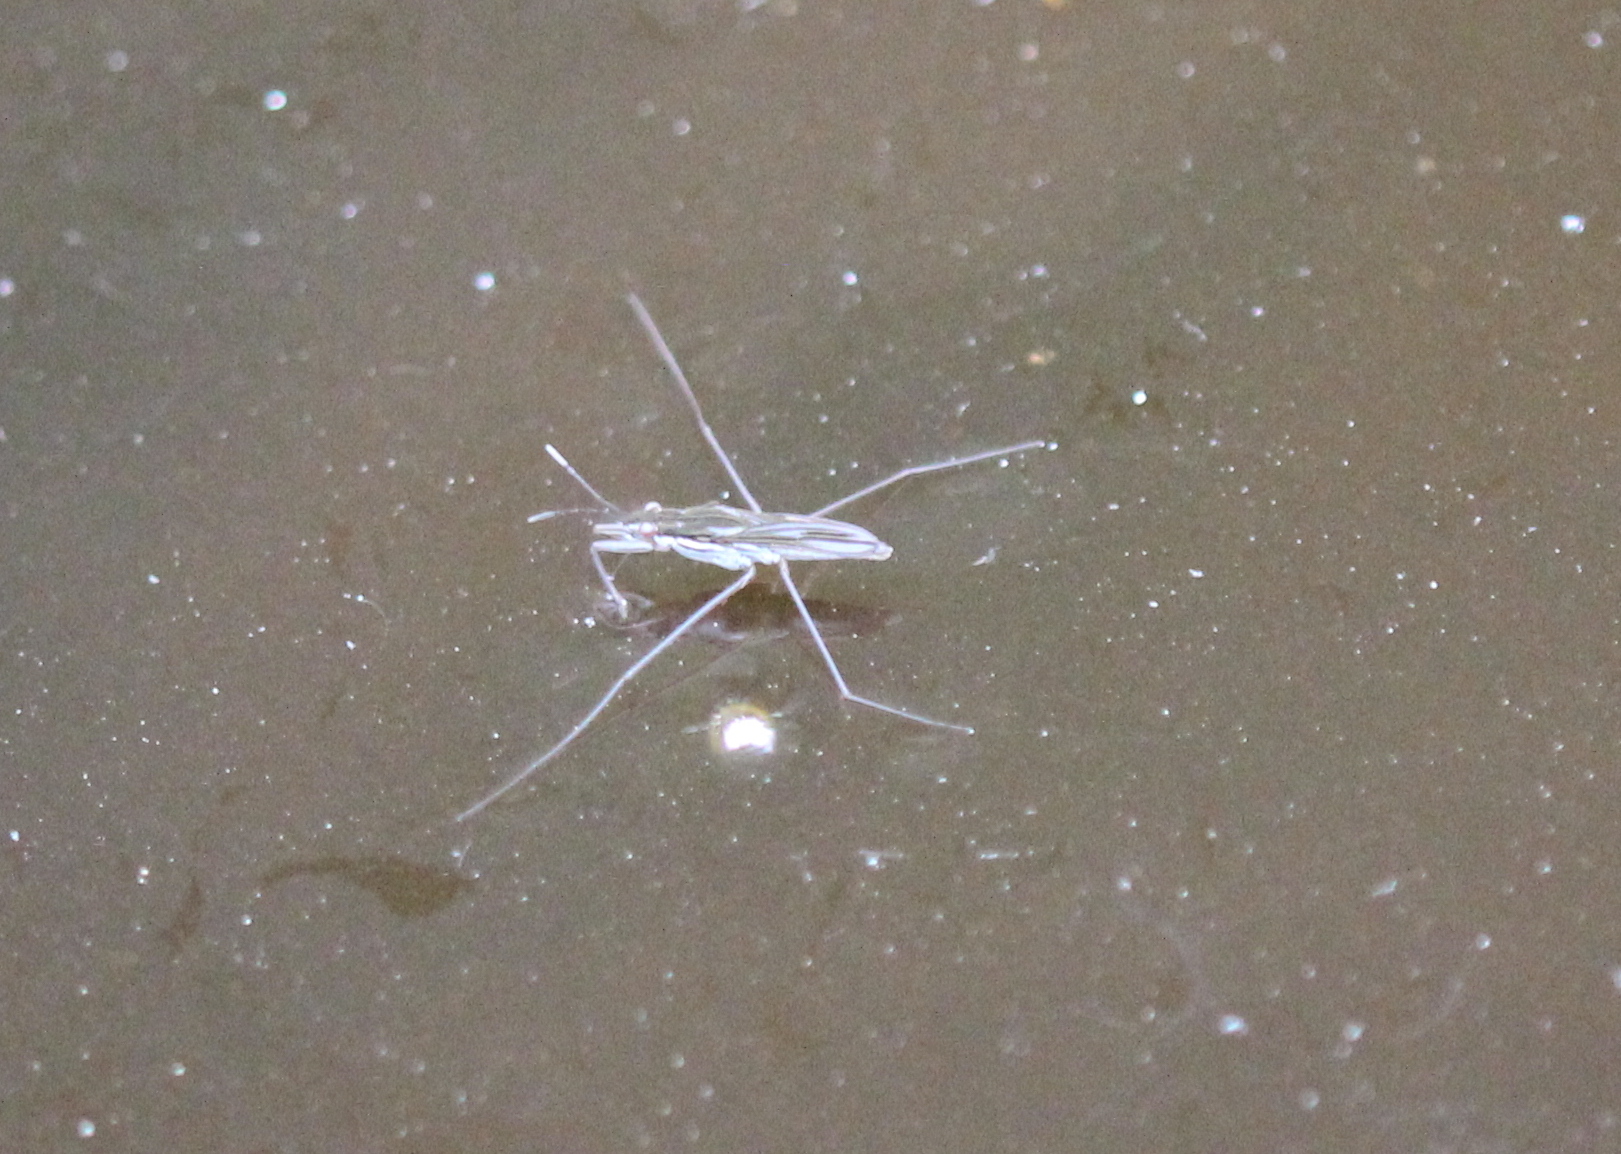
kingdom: Animalia
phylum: Arthropoda
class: Insecta
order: Hemiptera
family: Gerridae
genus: Gerris
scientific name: Gerris
